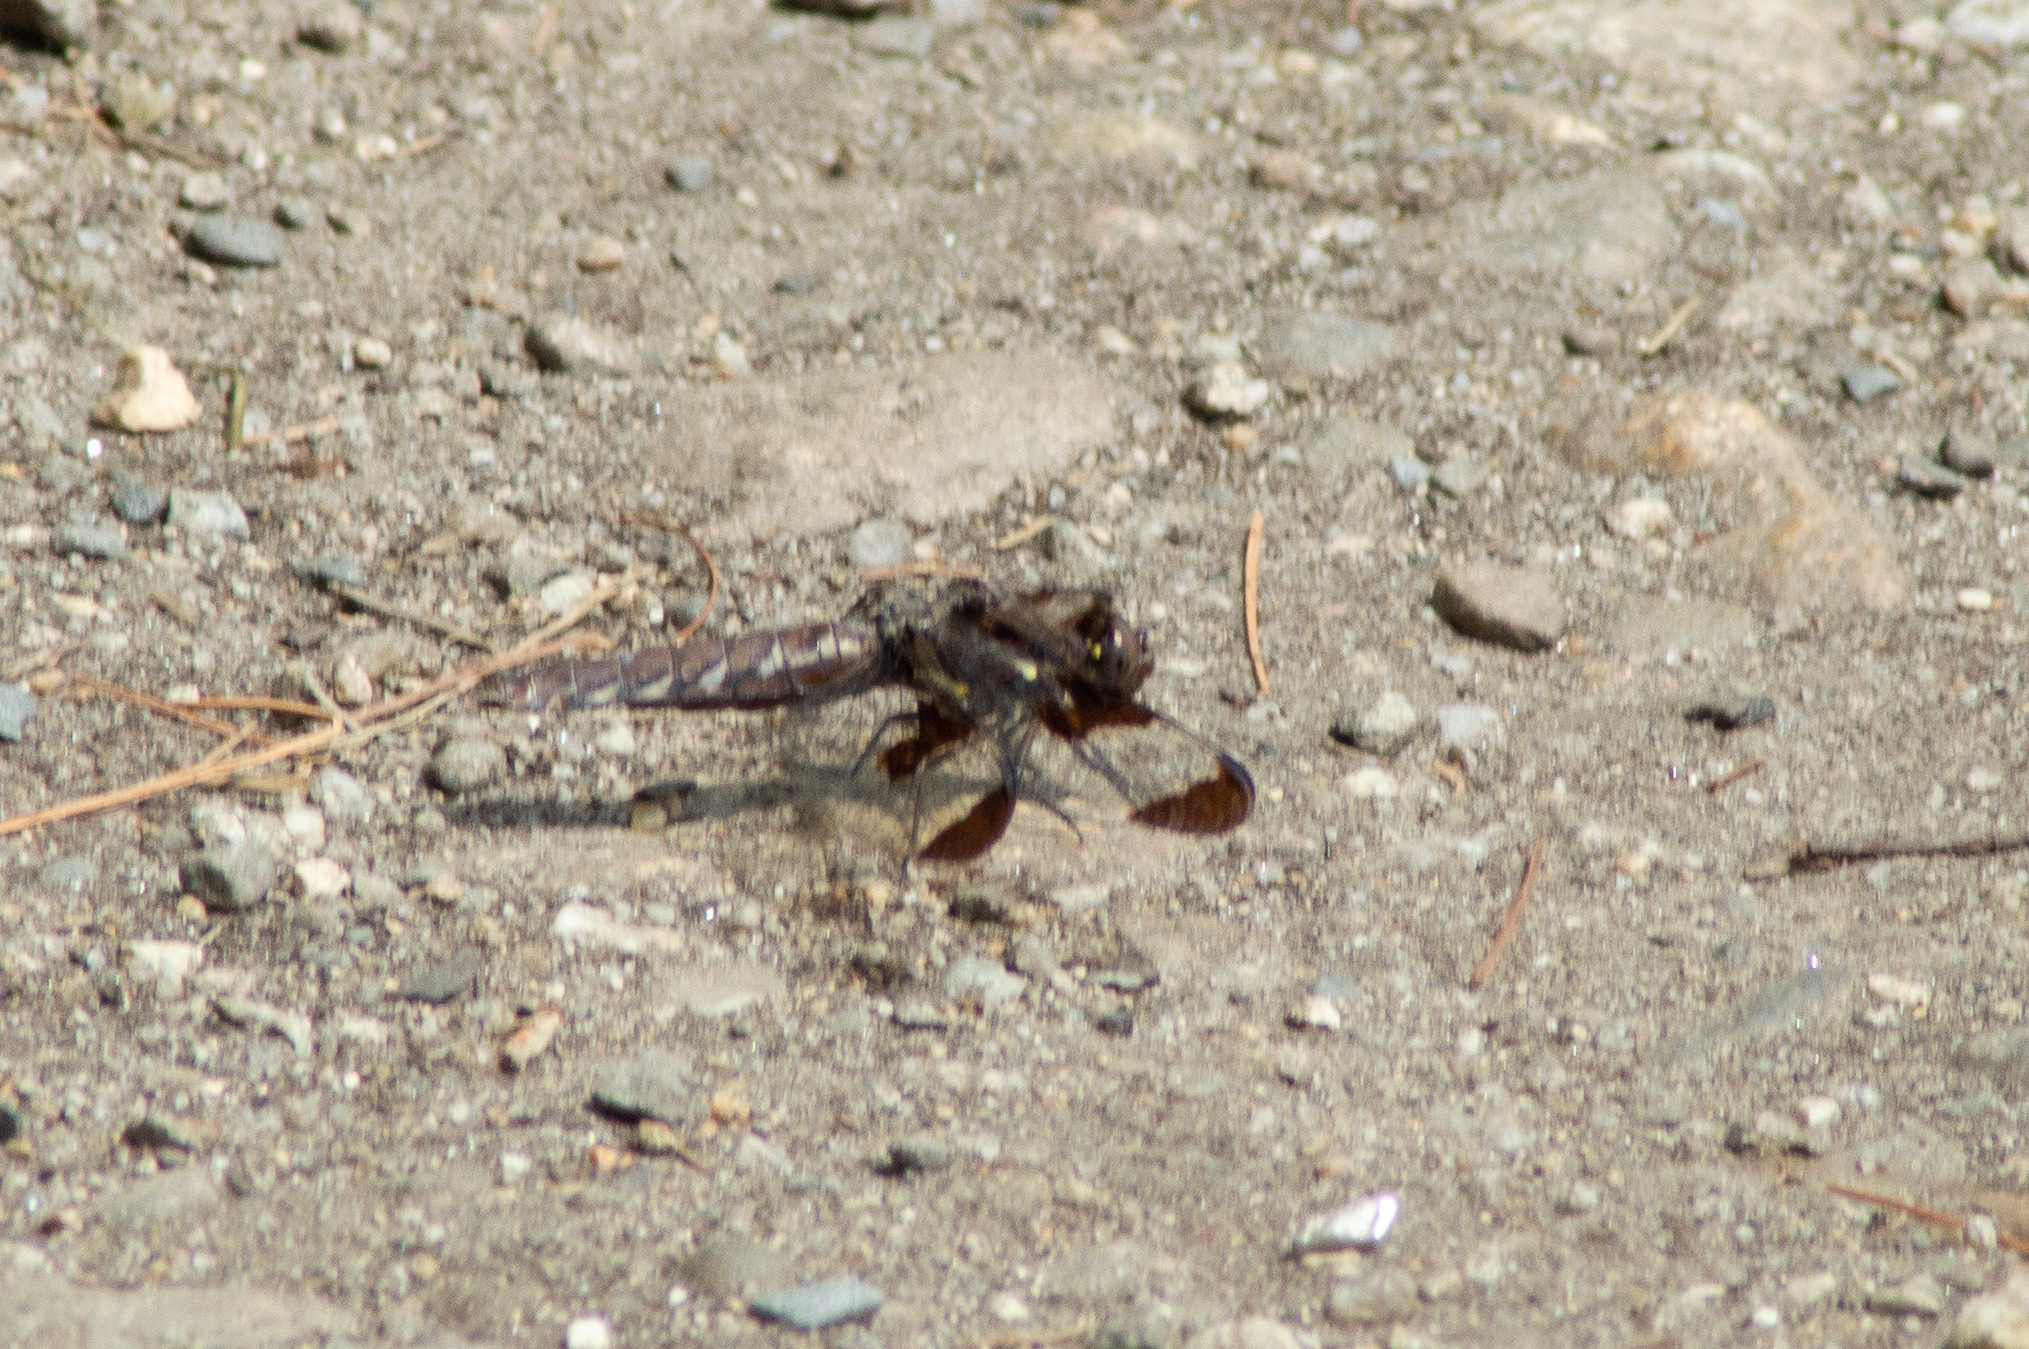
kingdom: Animalia
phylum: Arthropoda
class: Insecta
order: Odonata
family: Libellulidae
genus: Plathemis
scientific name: Plathemis lydia
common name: Common whitetail
